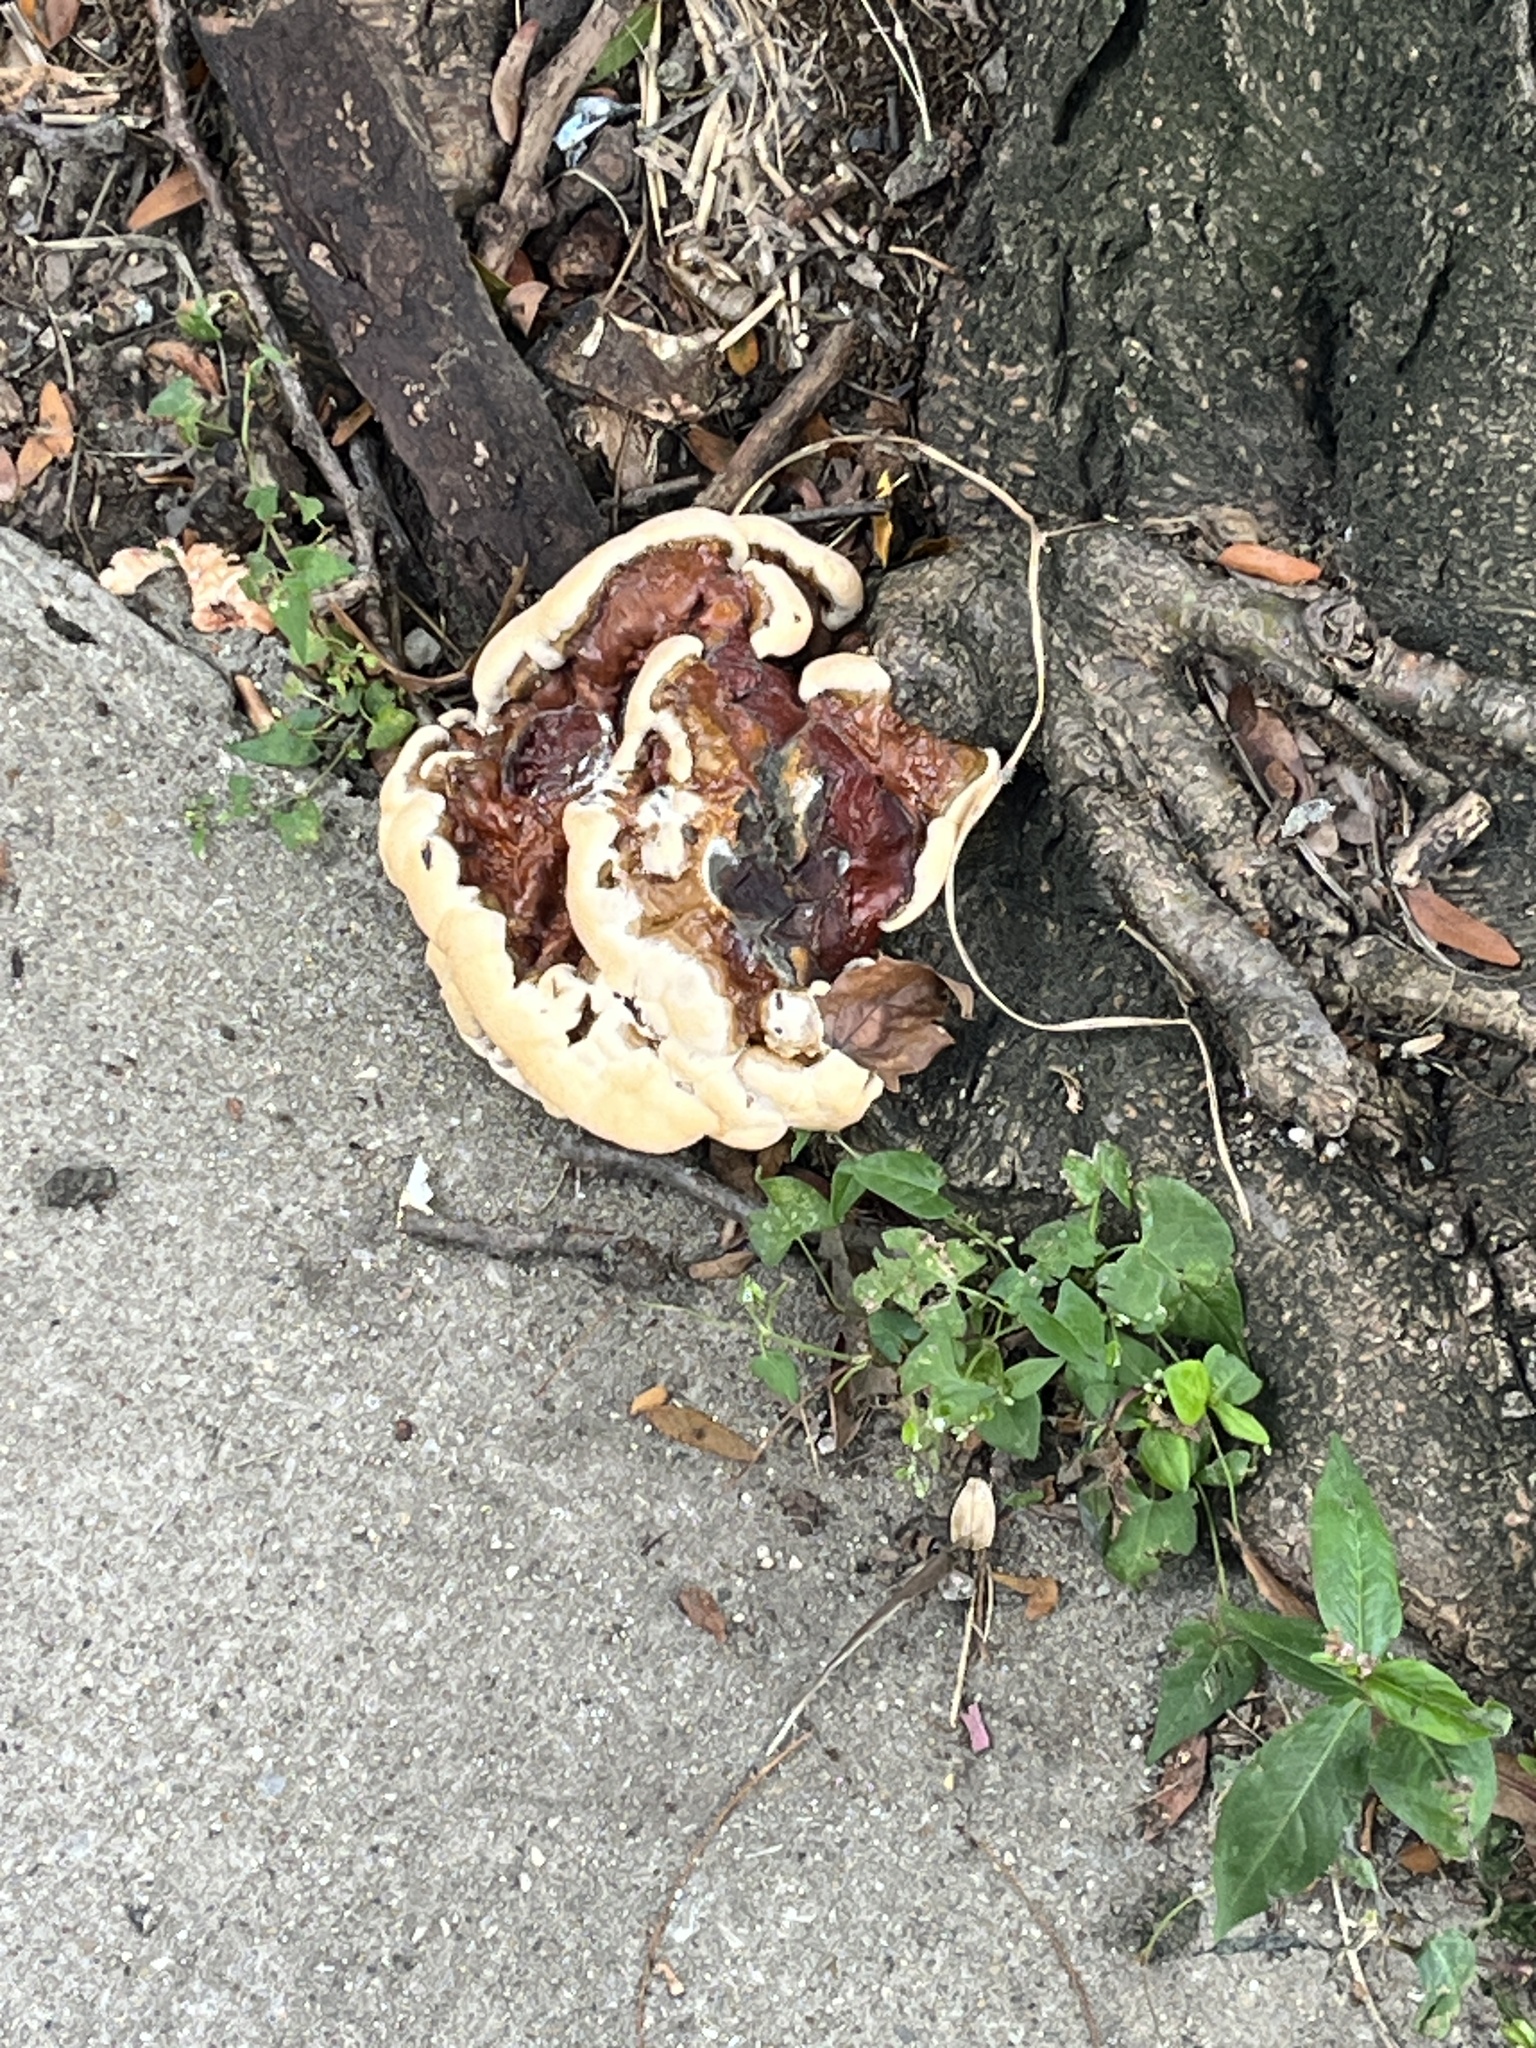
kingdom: Fungi
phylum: Basidiomycota
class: Agaricomycetes
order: Polyporales
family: Polyporaceae
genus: Ganoderma
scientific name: Ganoderma resinaceum
